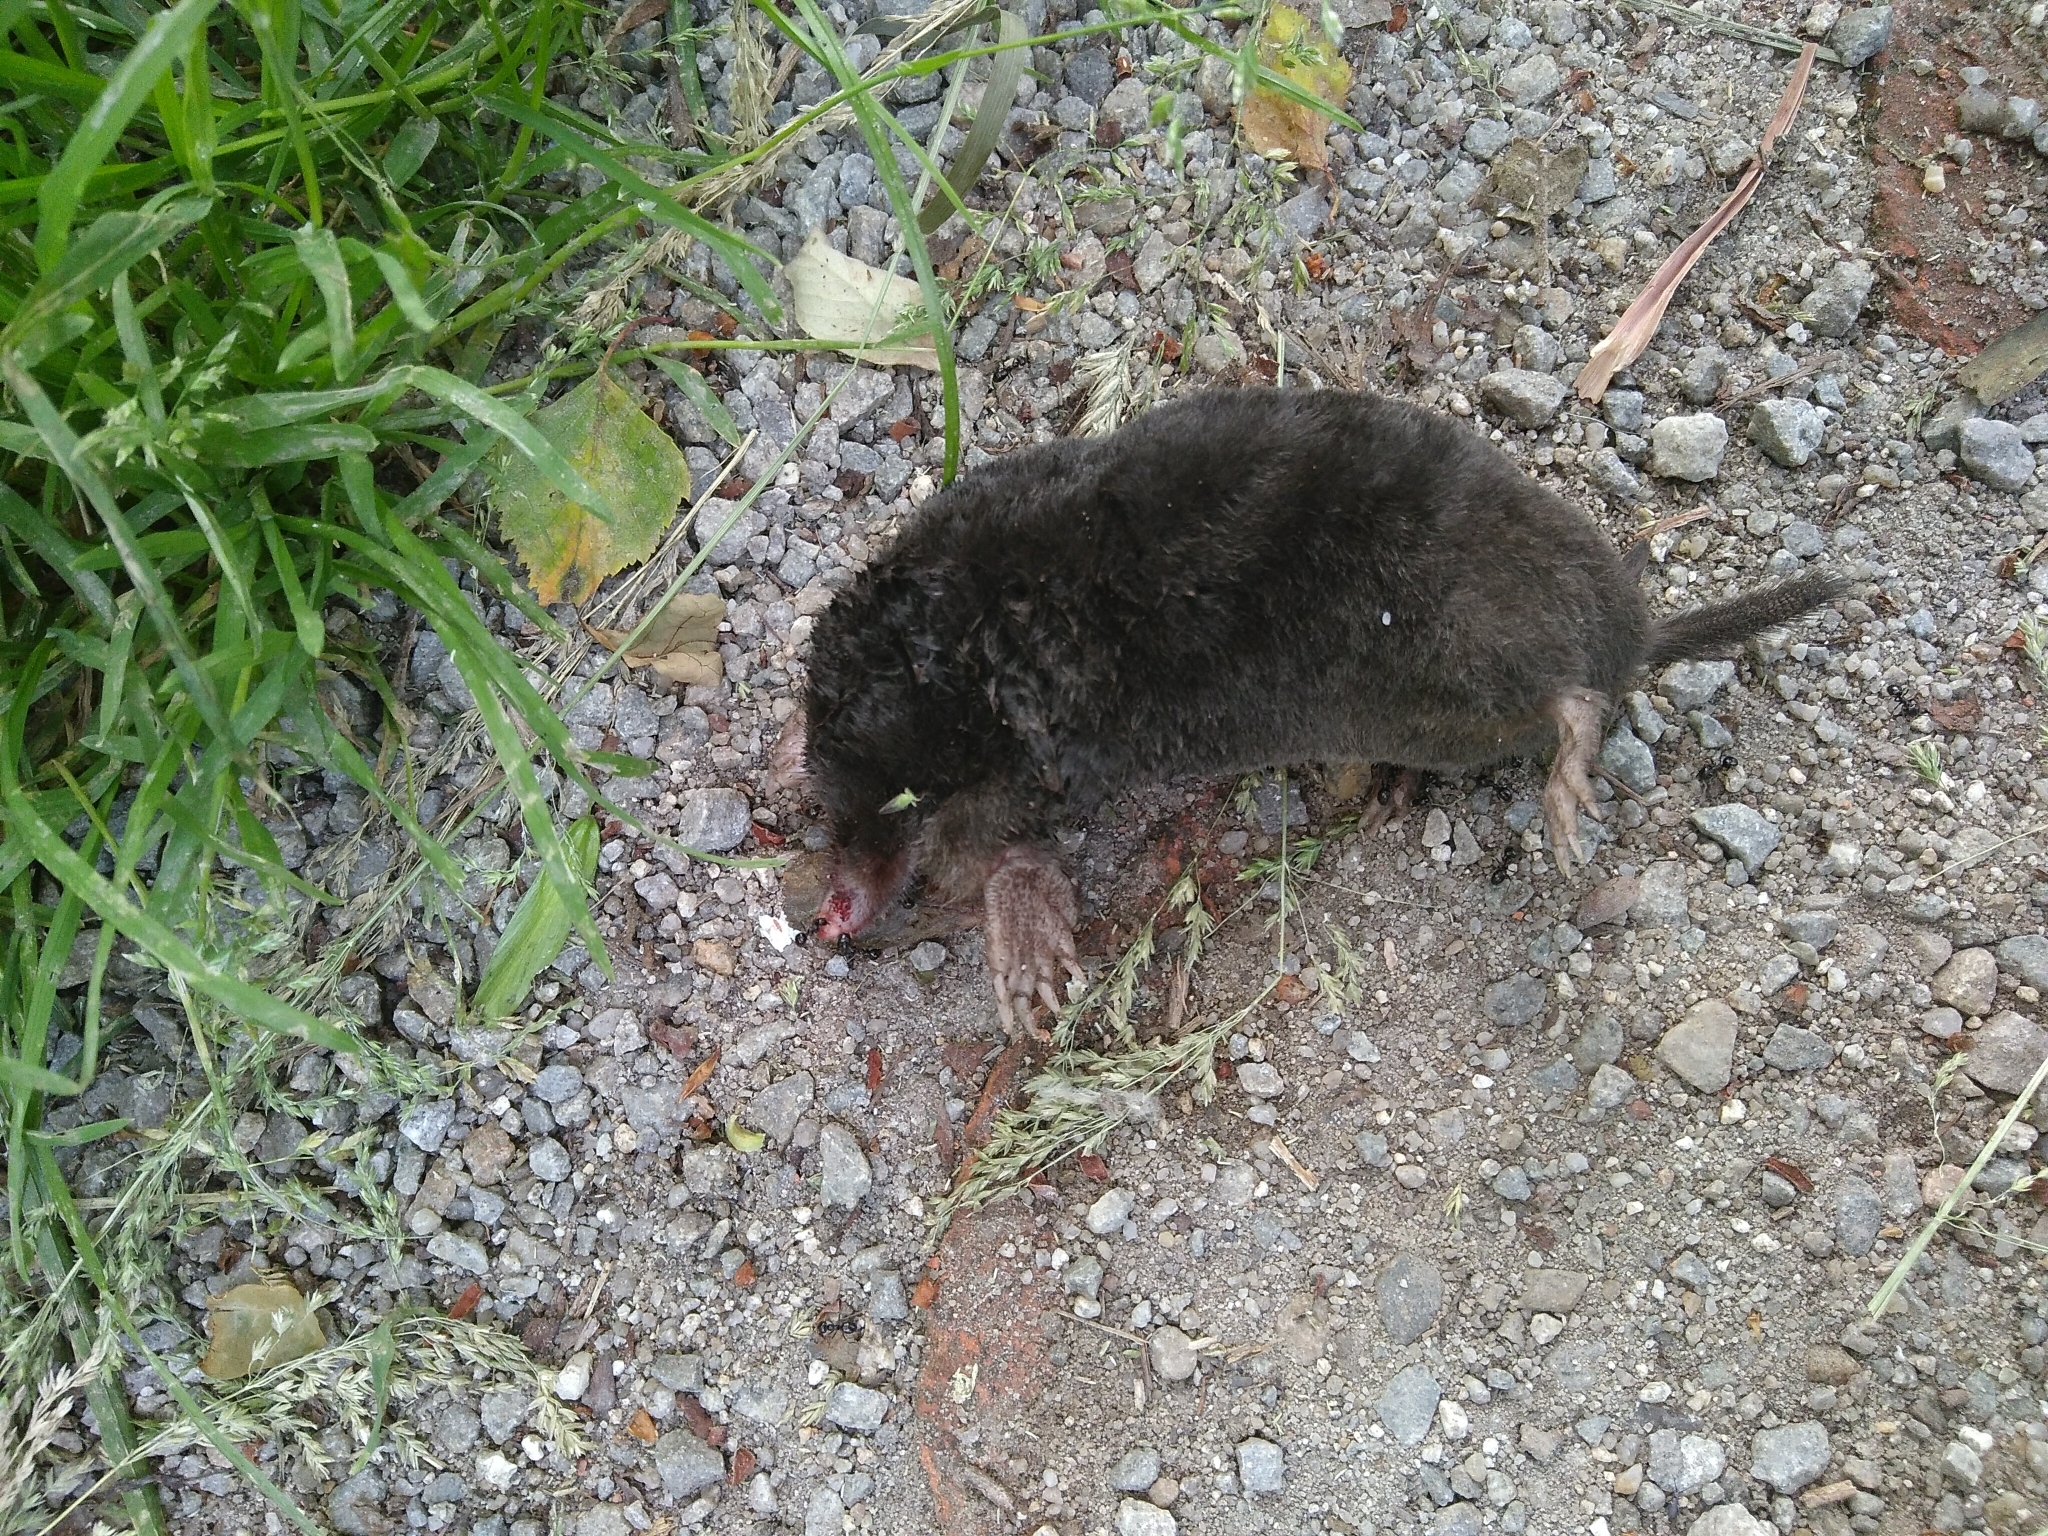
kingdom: Animalia
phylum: Chordata
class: Mammalia
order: Soricomorpha
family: Talpidae
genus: Talpa
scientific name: Talpa europaea
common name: European mole
